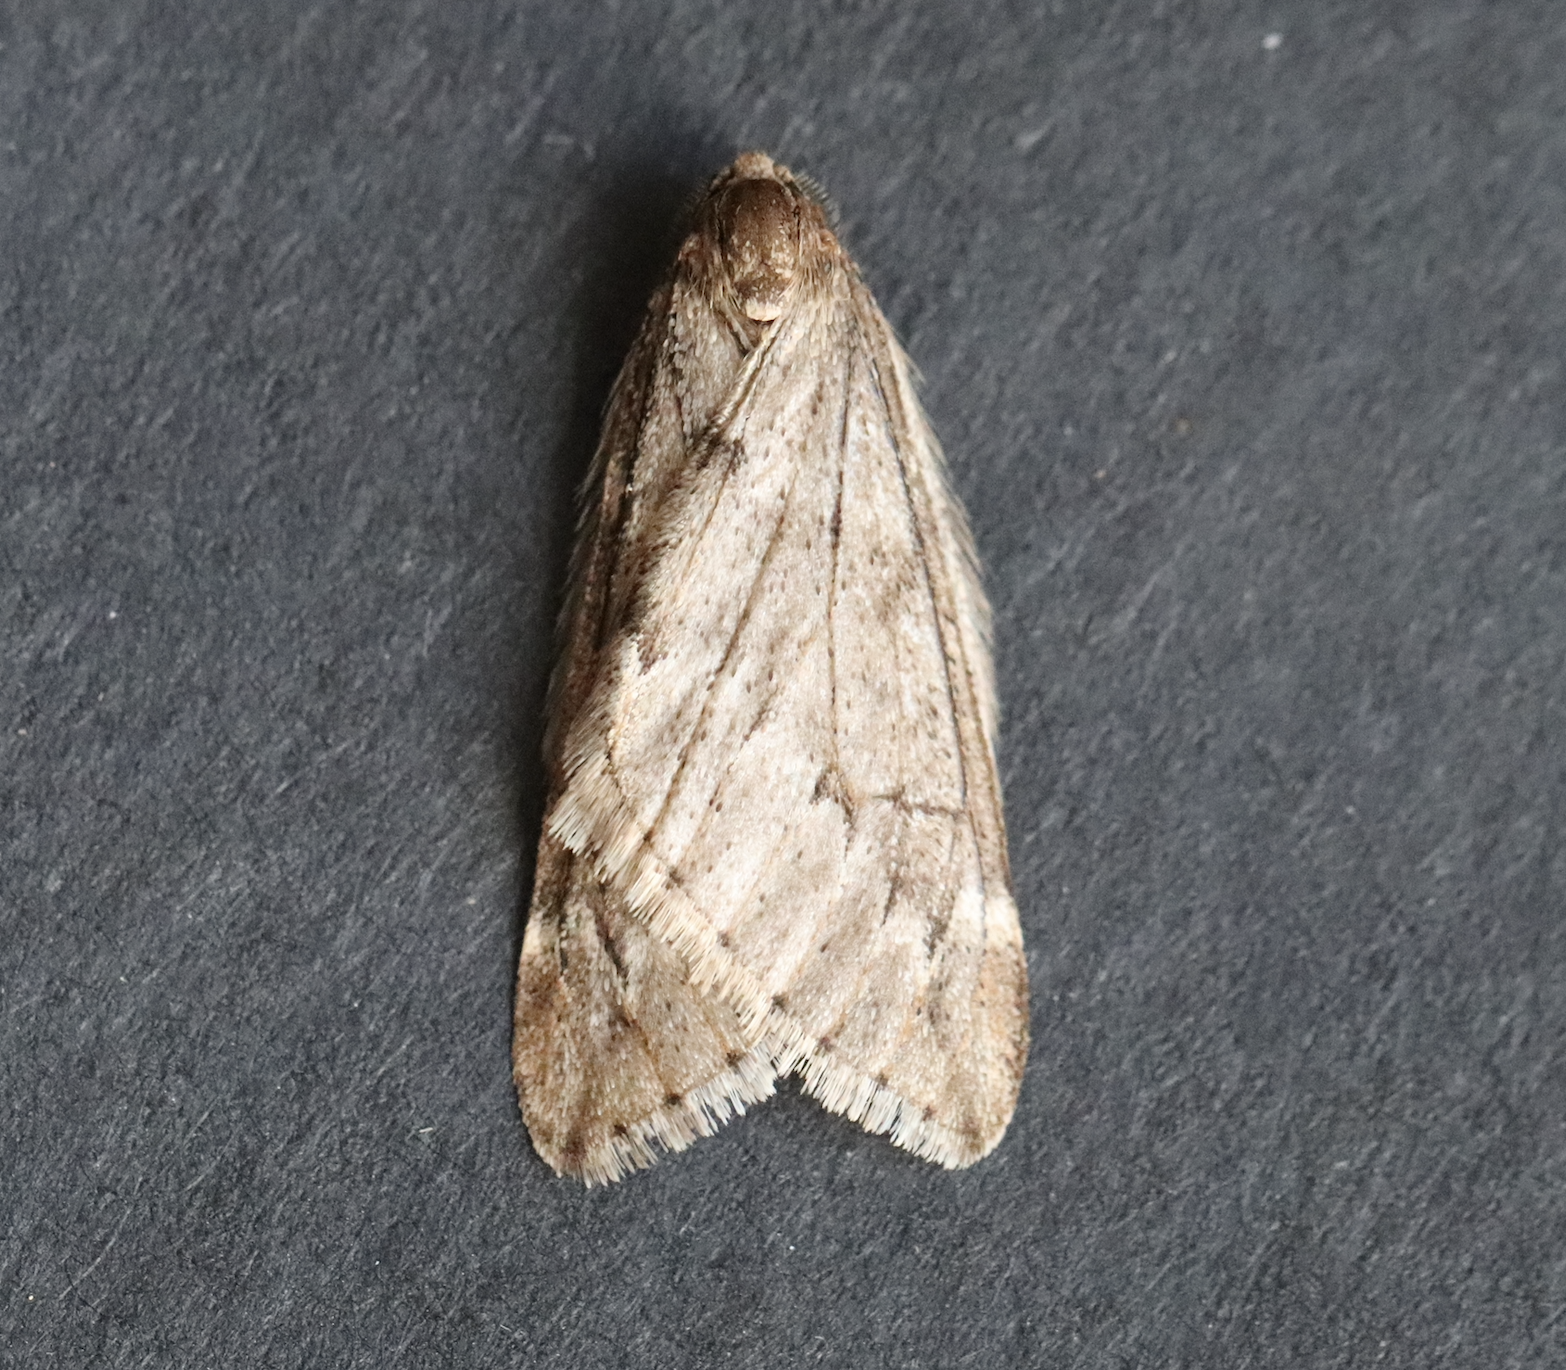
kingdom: Animalia
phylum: Arthropoda
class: Insecta
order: Lepidoptera
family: Geometridae
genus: Alsophila
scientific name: Alsophila aescularia
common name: March moth
